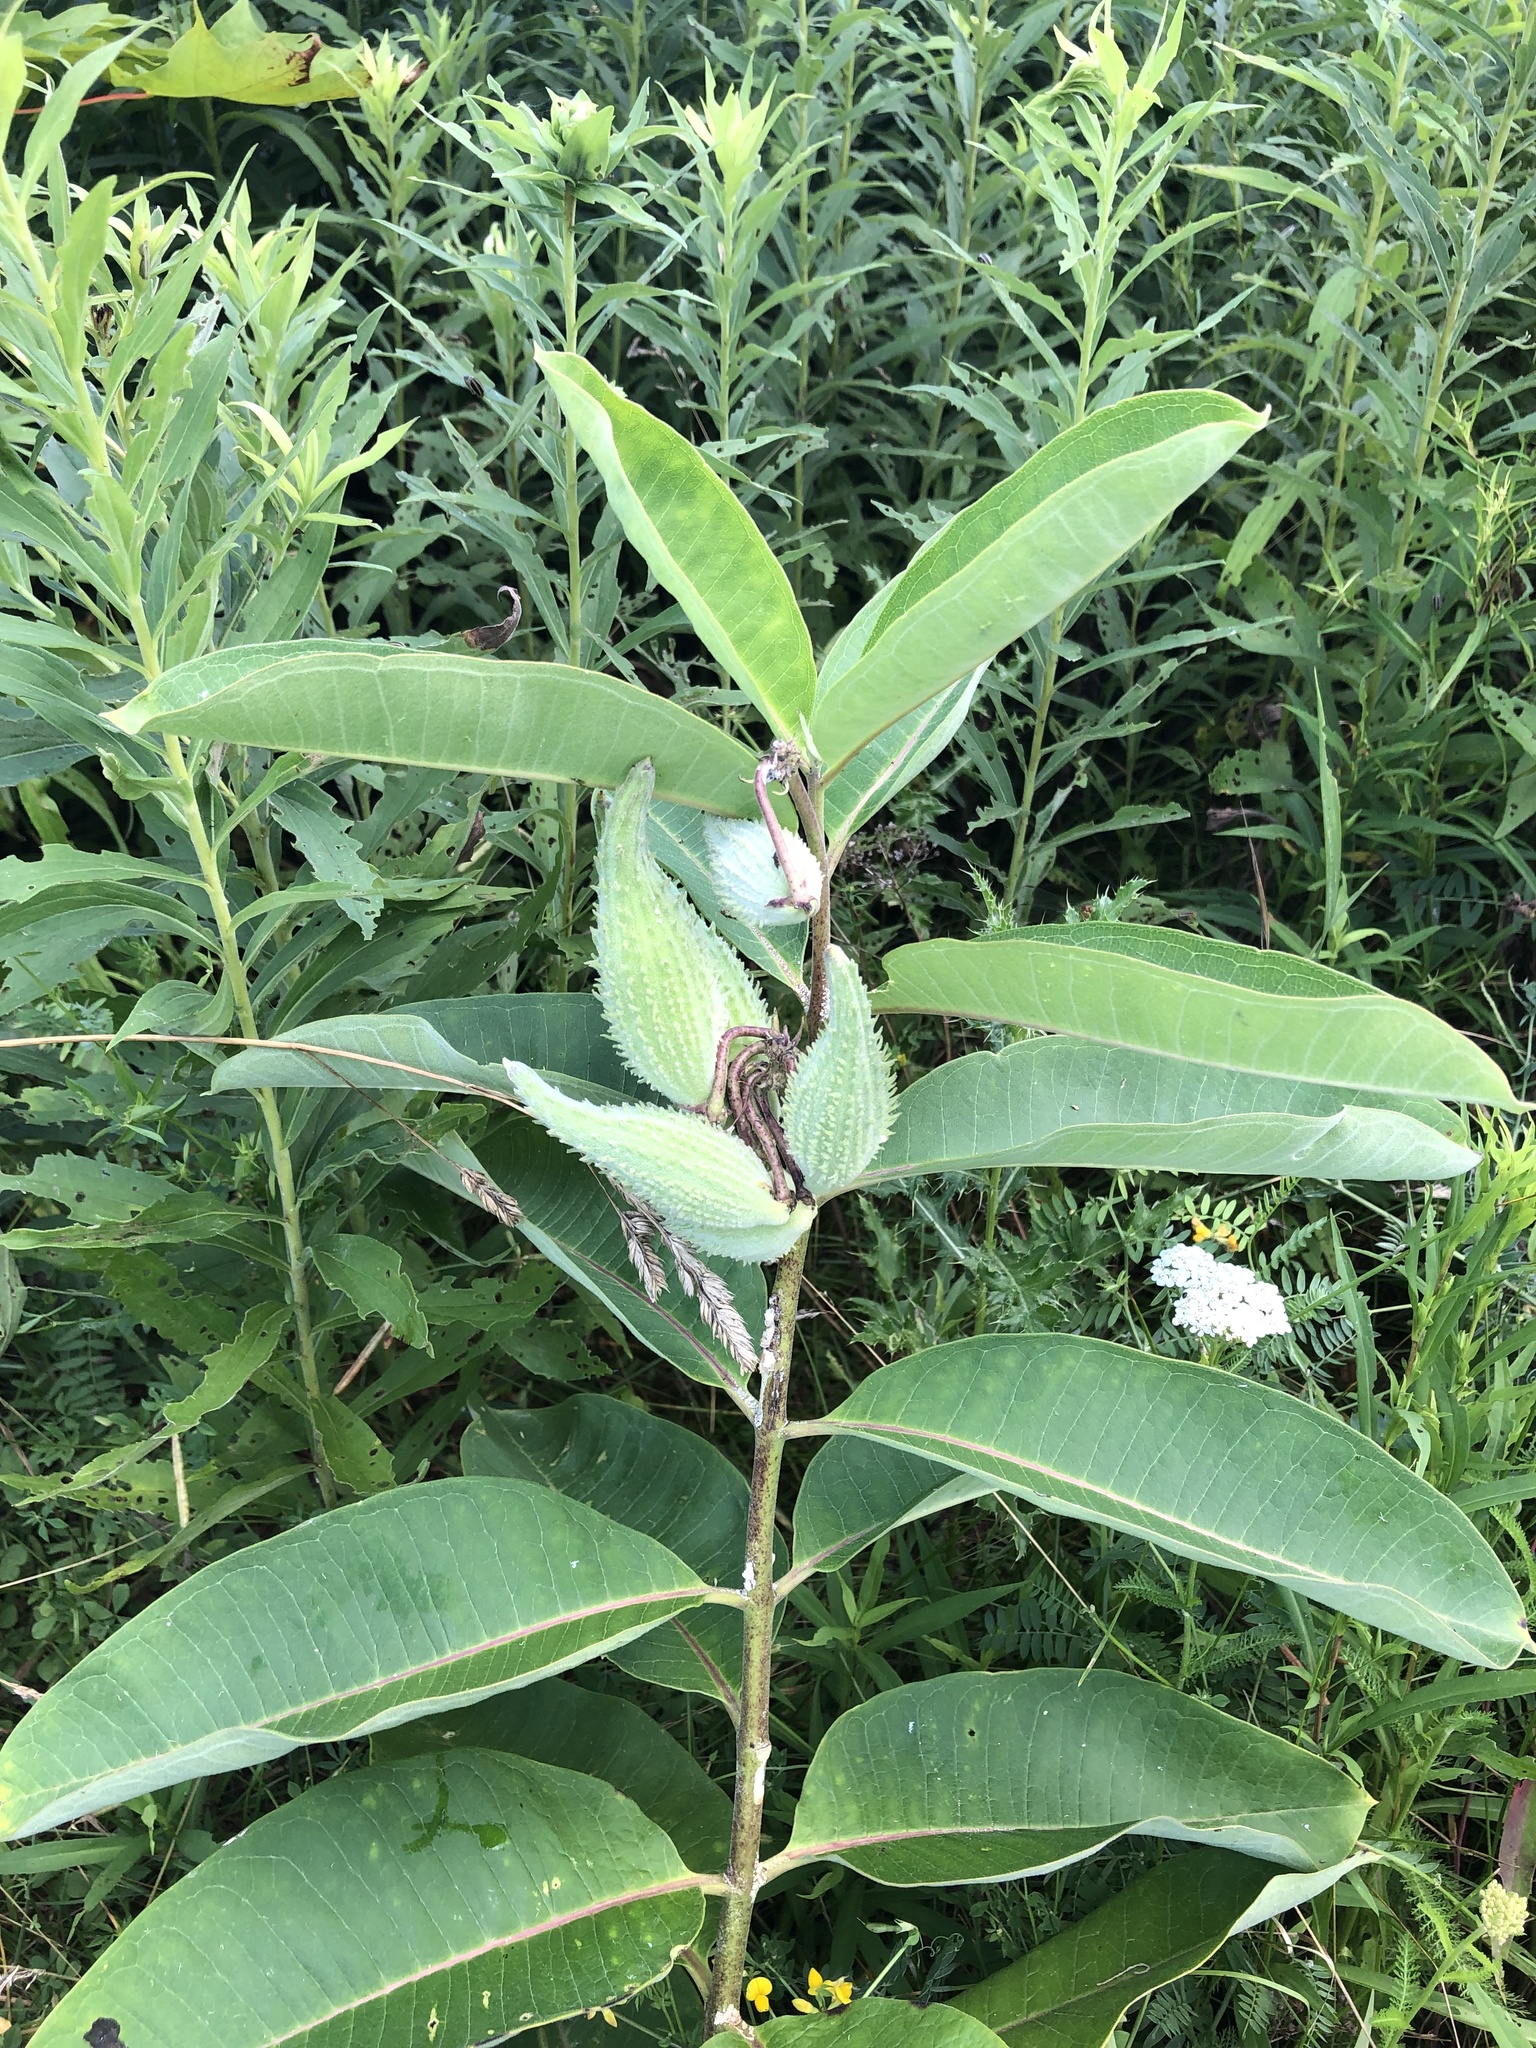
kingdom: Plantae
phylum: Tracheophyta
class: Magnoliopsida
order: Gentianales
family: Apocynaceae
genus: Asclepias
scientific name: Asclepias syriaca
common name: Common milkweed
